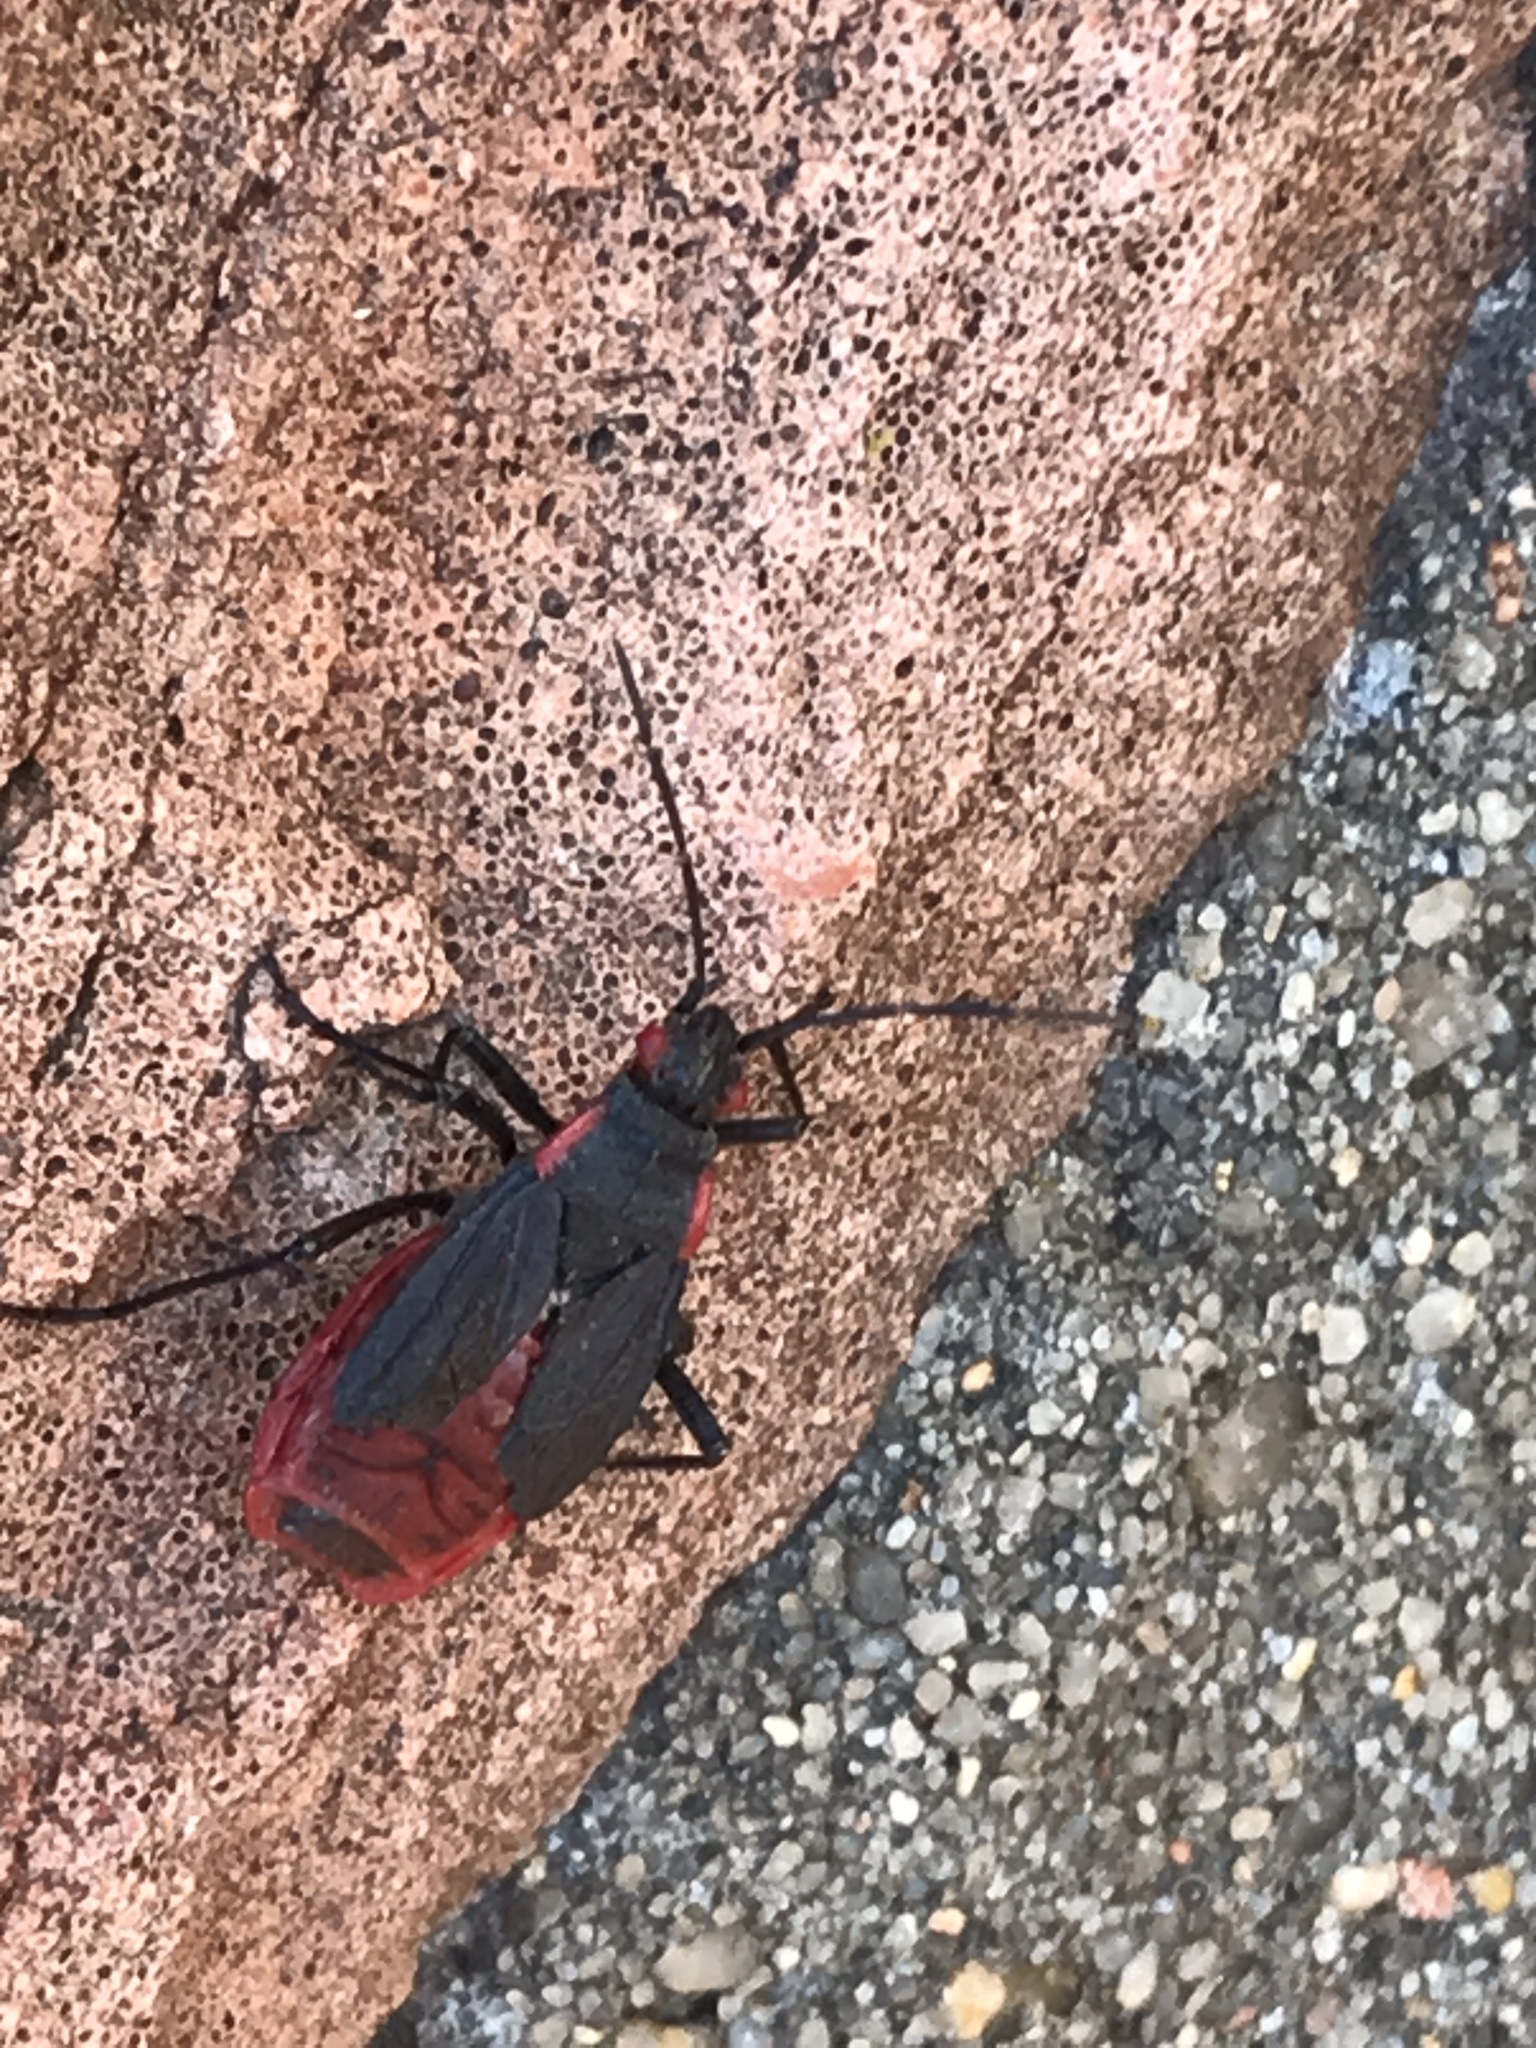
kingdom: Animalia
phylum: Arthropoda
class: Insecta
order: Hemiptera
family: Rhopalidae
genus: Jadera
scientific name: Jadera haematoloma
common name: Red-shouldered bug
